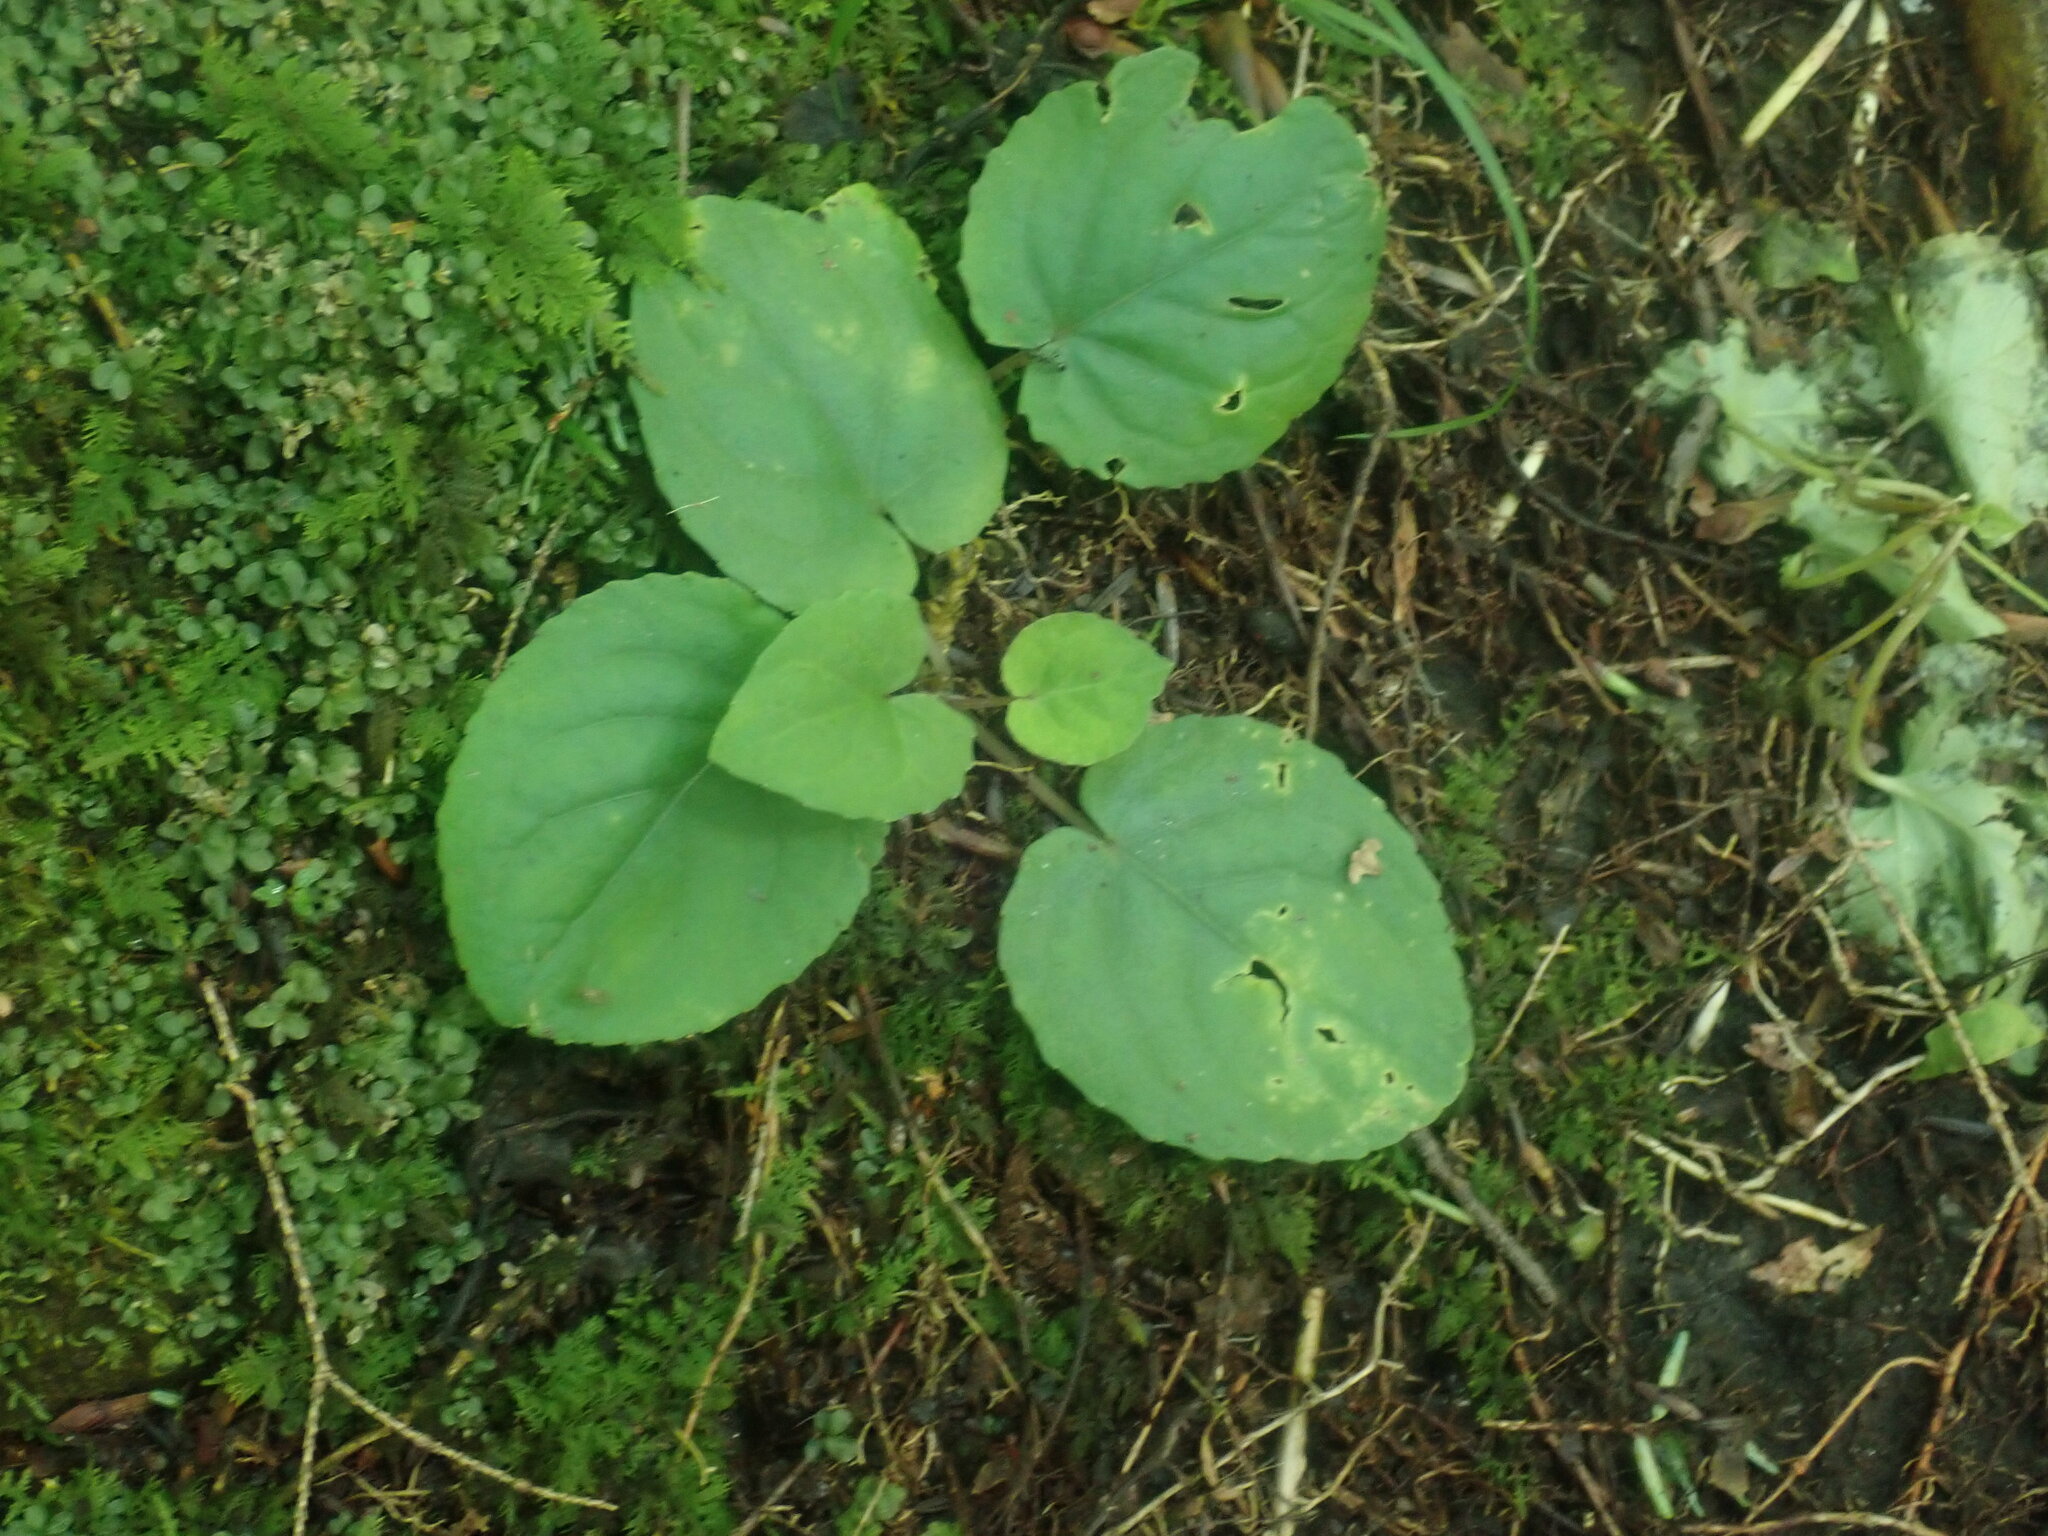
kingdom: Plantae
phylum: Tracheophyta
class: Magnoliopsida
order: Malpighiales
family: Violaceae
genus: Viola
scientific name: Viola rotundifolia
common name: Early yellow violet
